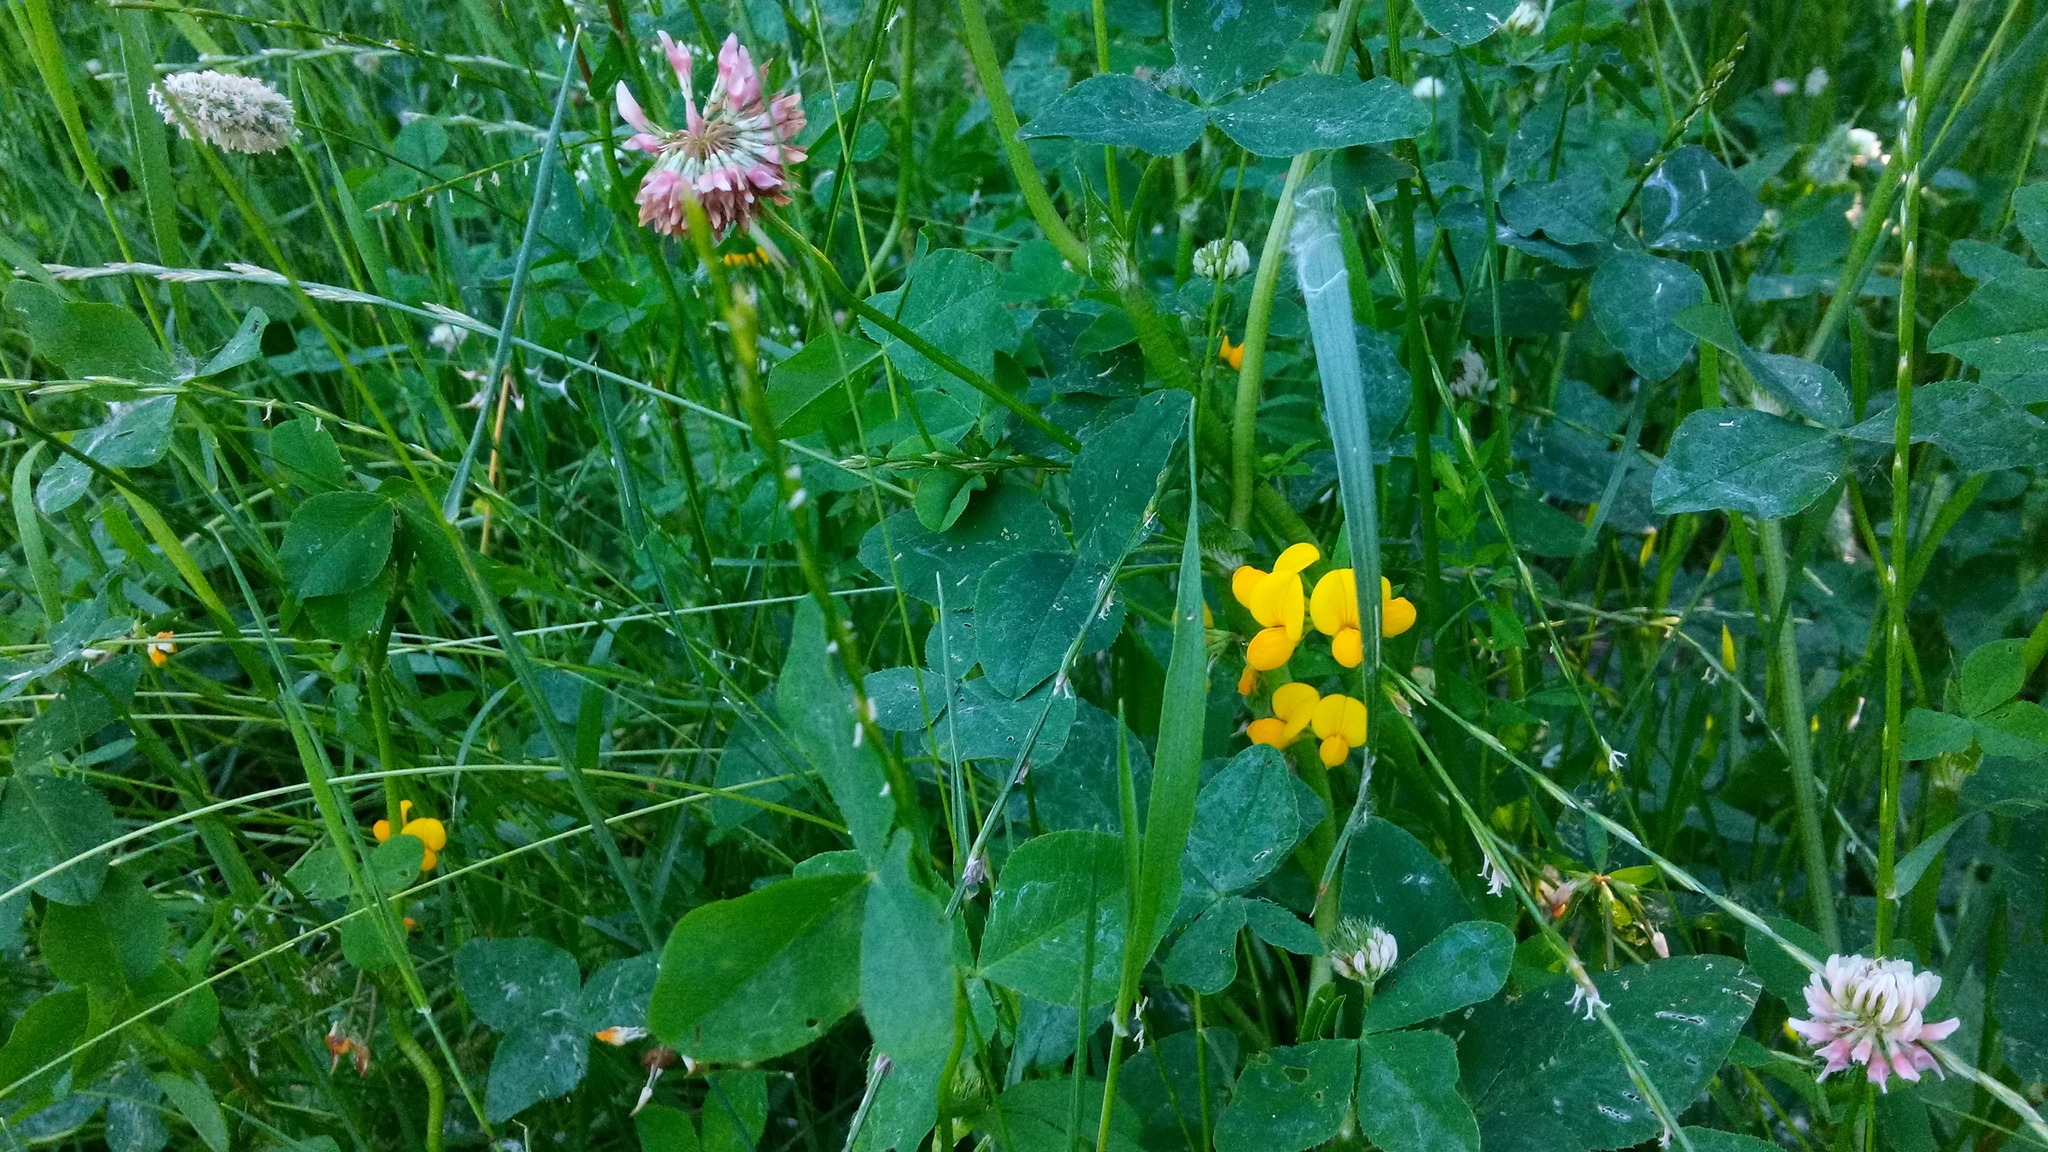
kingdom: Plantae
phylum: Tracheophyta
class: Magnoliopsida
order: Fabales
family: Fabaceae
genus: Lotus
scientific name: Lotus corniculatus
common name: Common bird's-foot-trefoil
